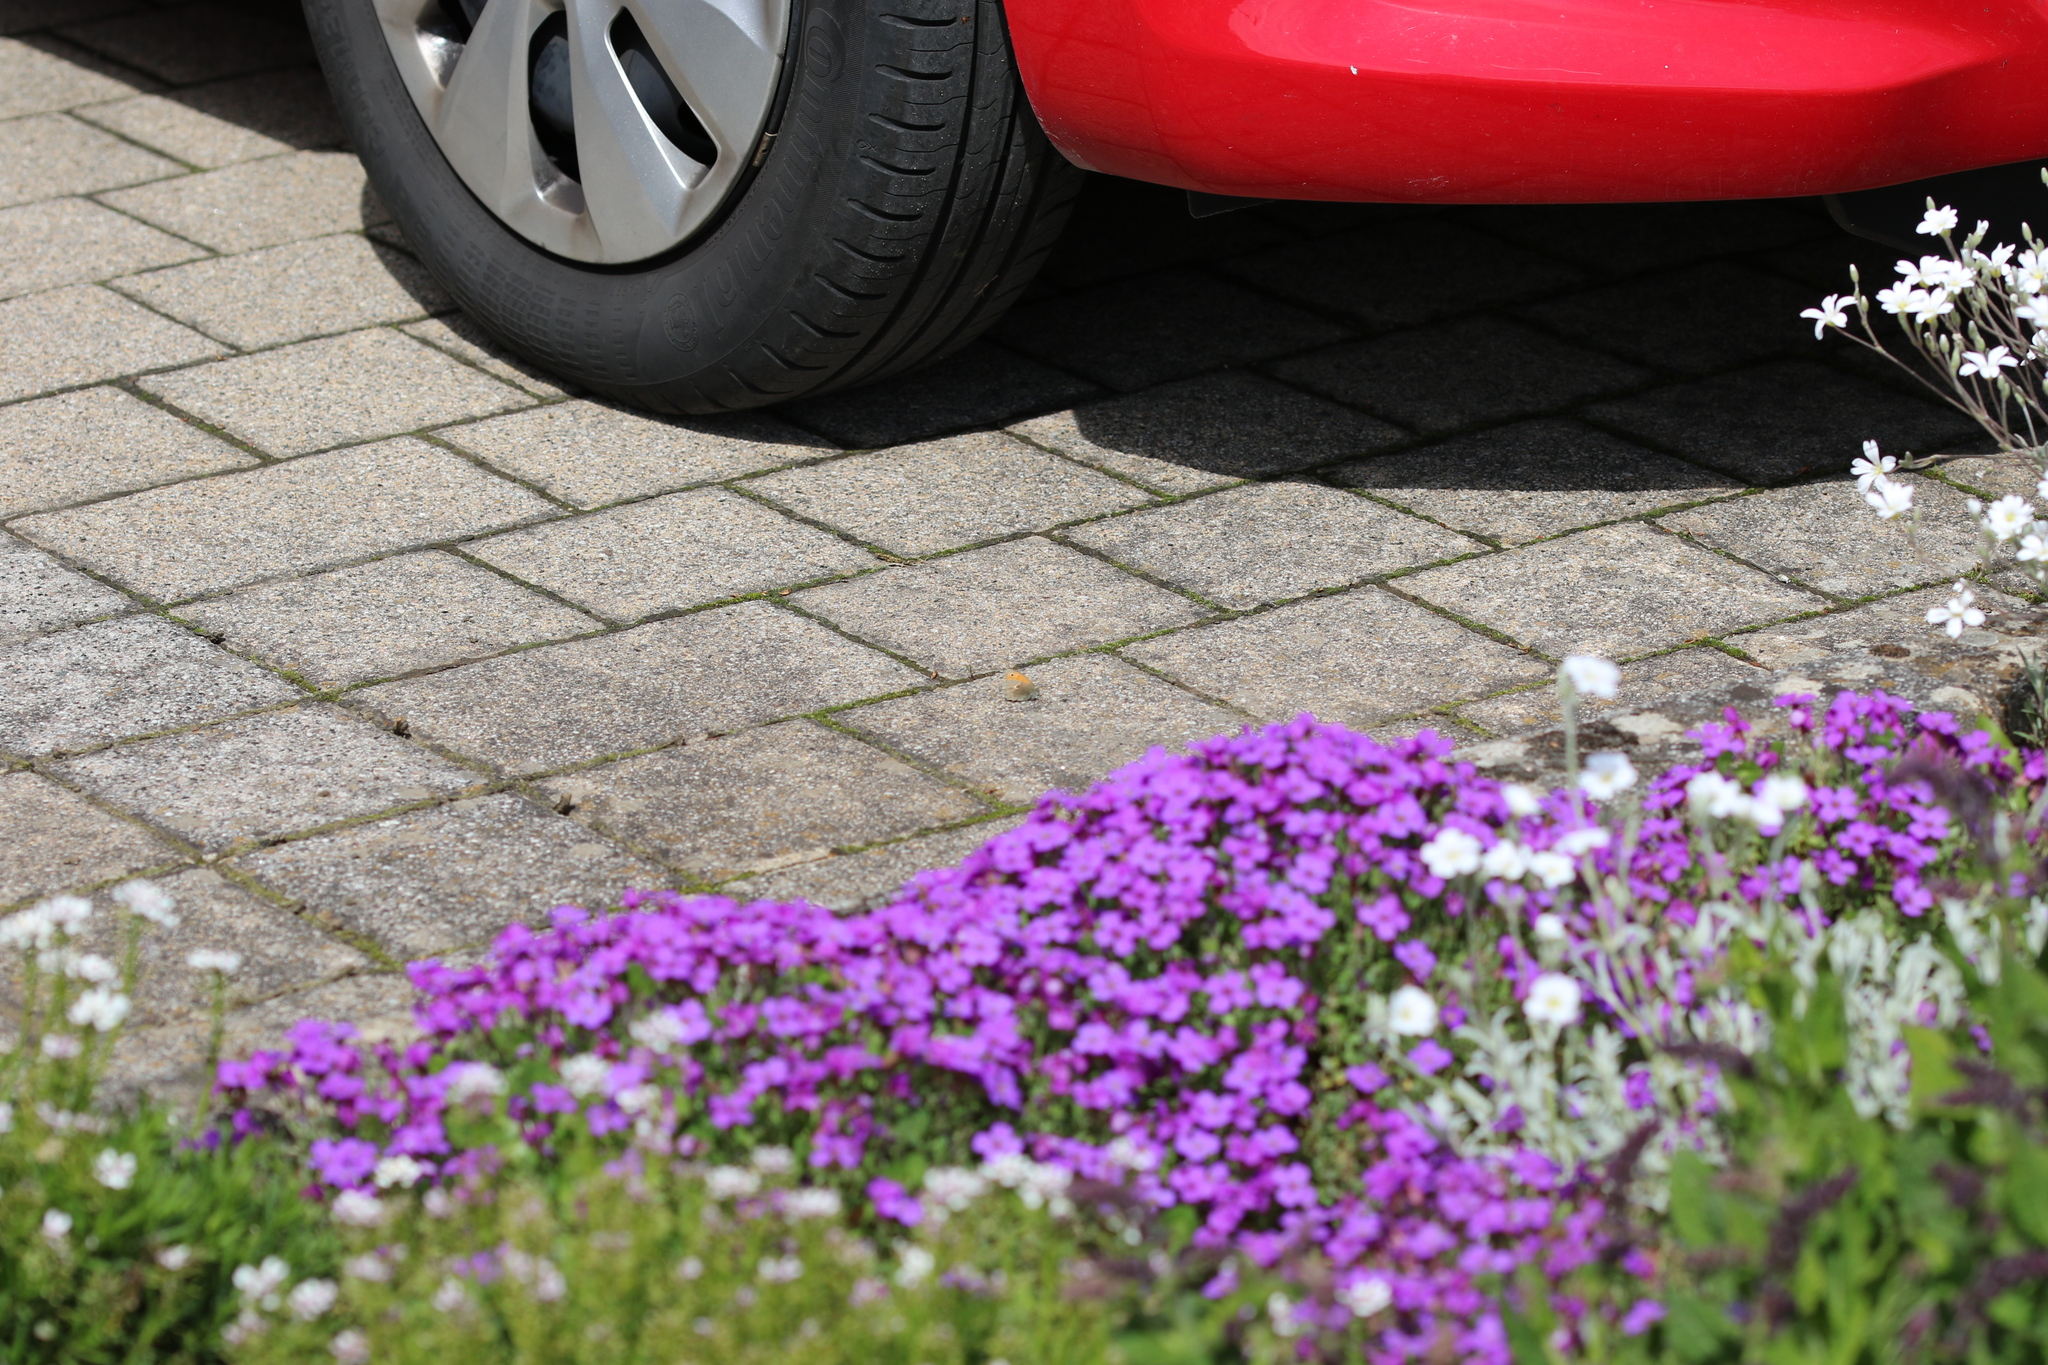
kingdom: Animalia
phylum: Arthropoda
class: Insecta
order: Lepidoptera
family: Nymphalidae
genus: Coenonympha
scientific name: Coenonympha pamphilus
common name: Small heath
